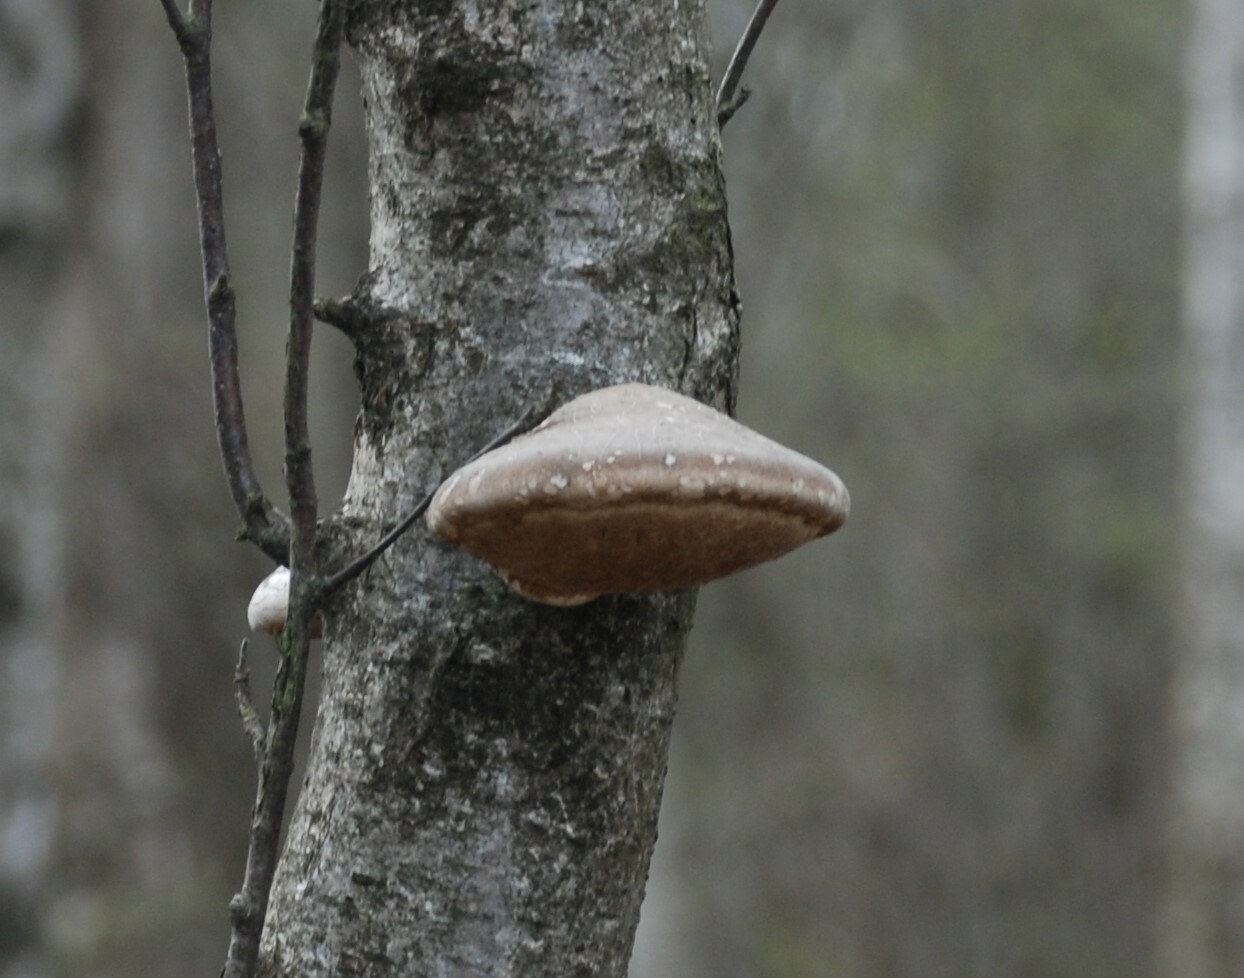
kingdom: Fungi
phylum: Basidiomycota
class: Agaricomycetes
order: Polyporales
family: Fomitopsidaceae
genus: Fomitopsis
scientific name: Fomitopsis betulina
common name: Birch polypore
